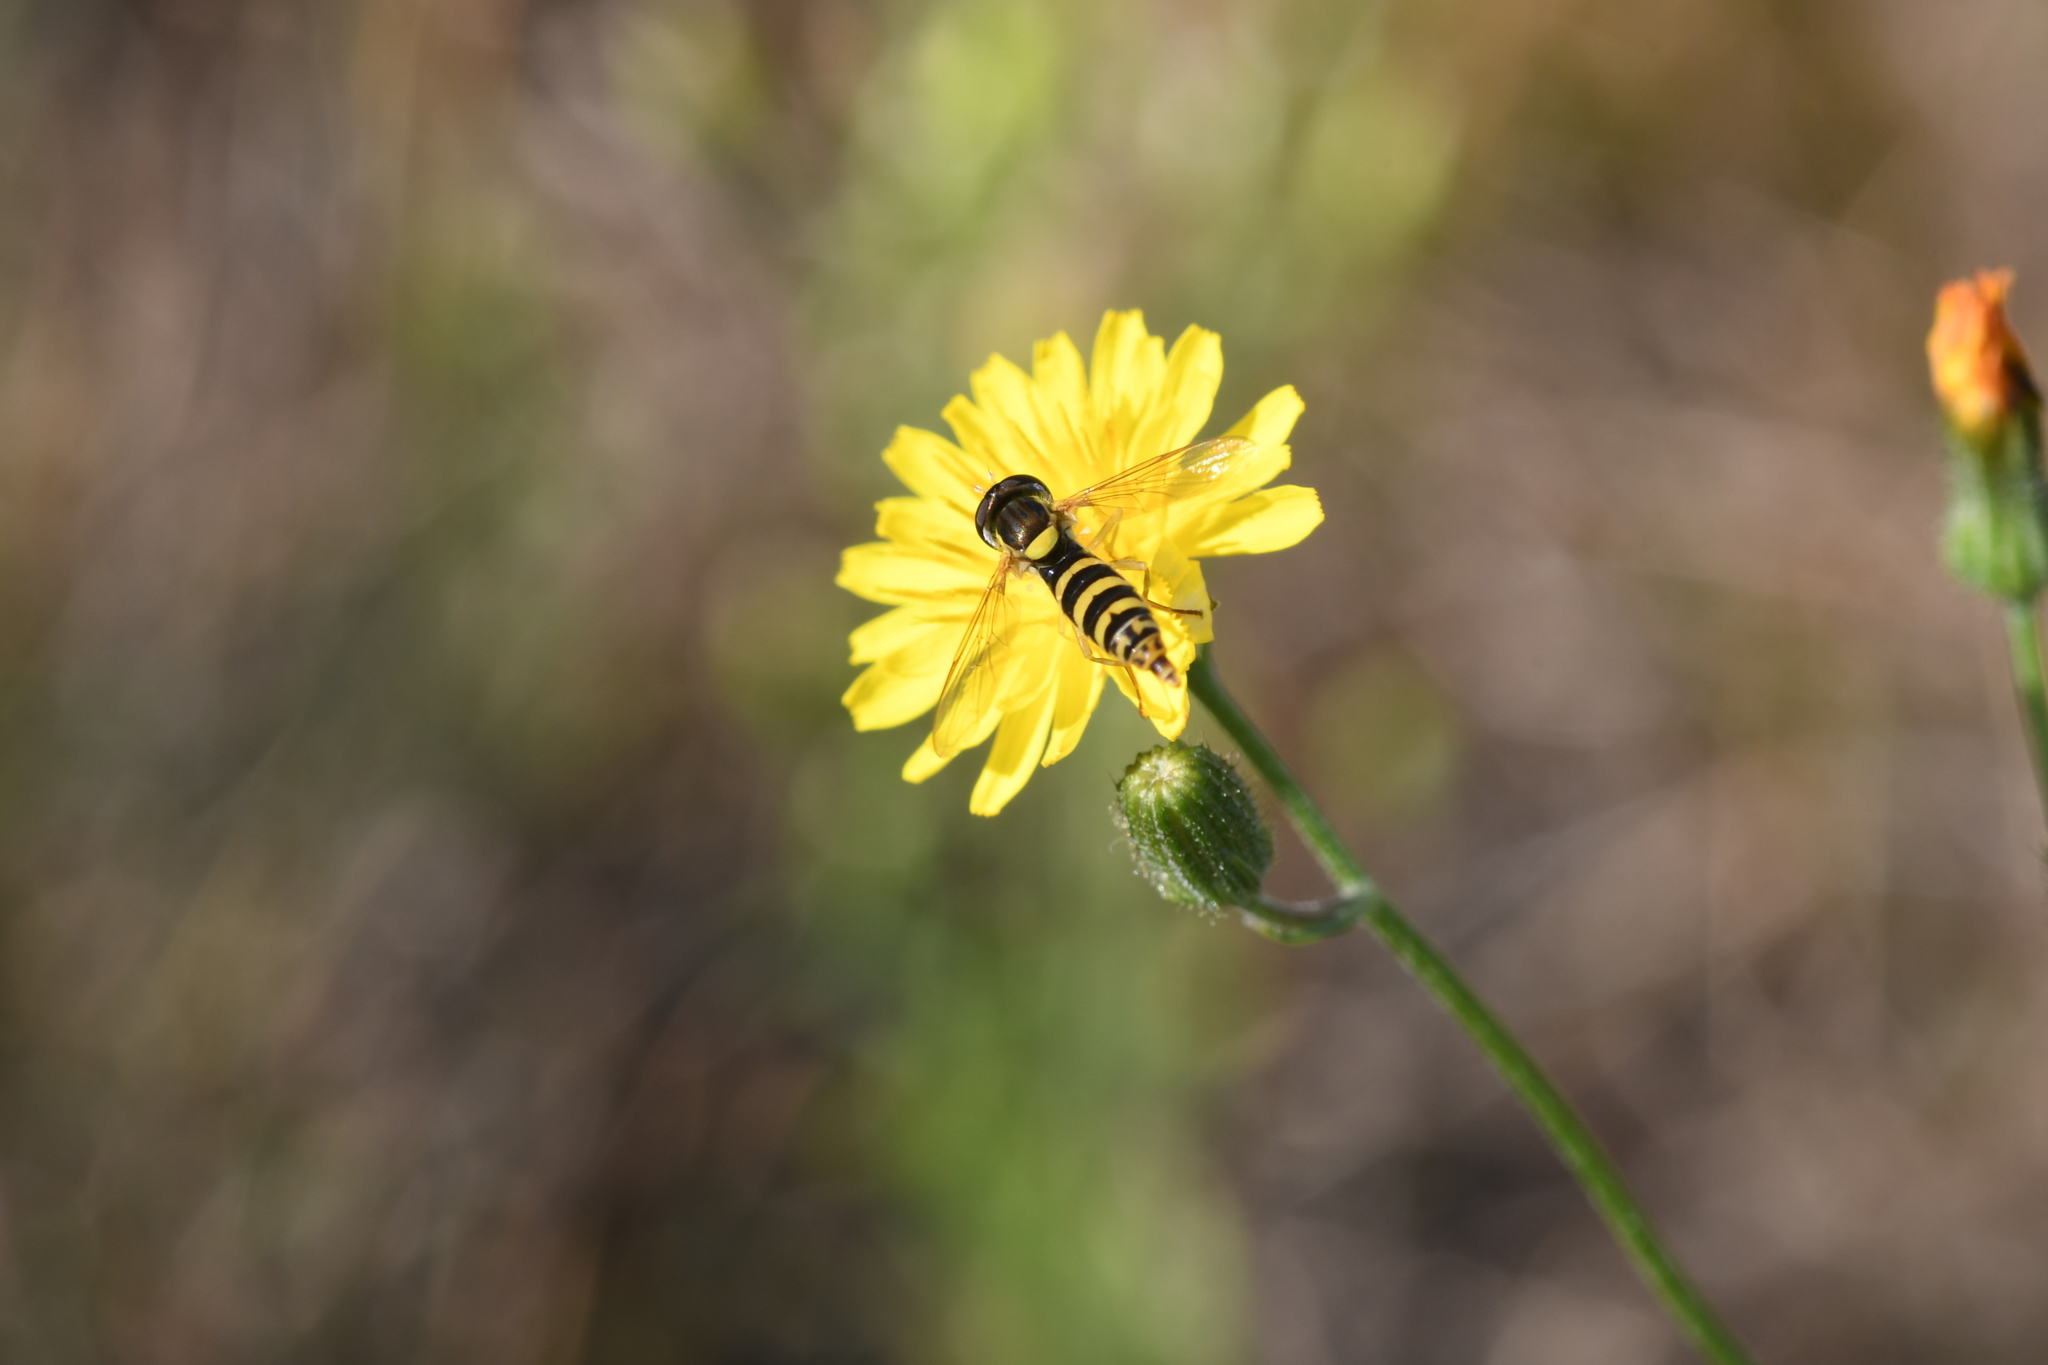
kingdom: Animalia
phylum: Arthropoda
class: Insecta
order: Diptera
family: Syrphidae
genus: Sphaerophoria
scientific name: Sphaerophoria
